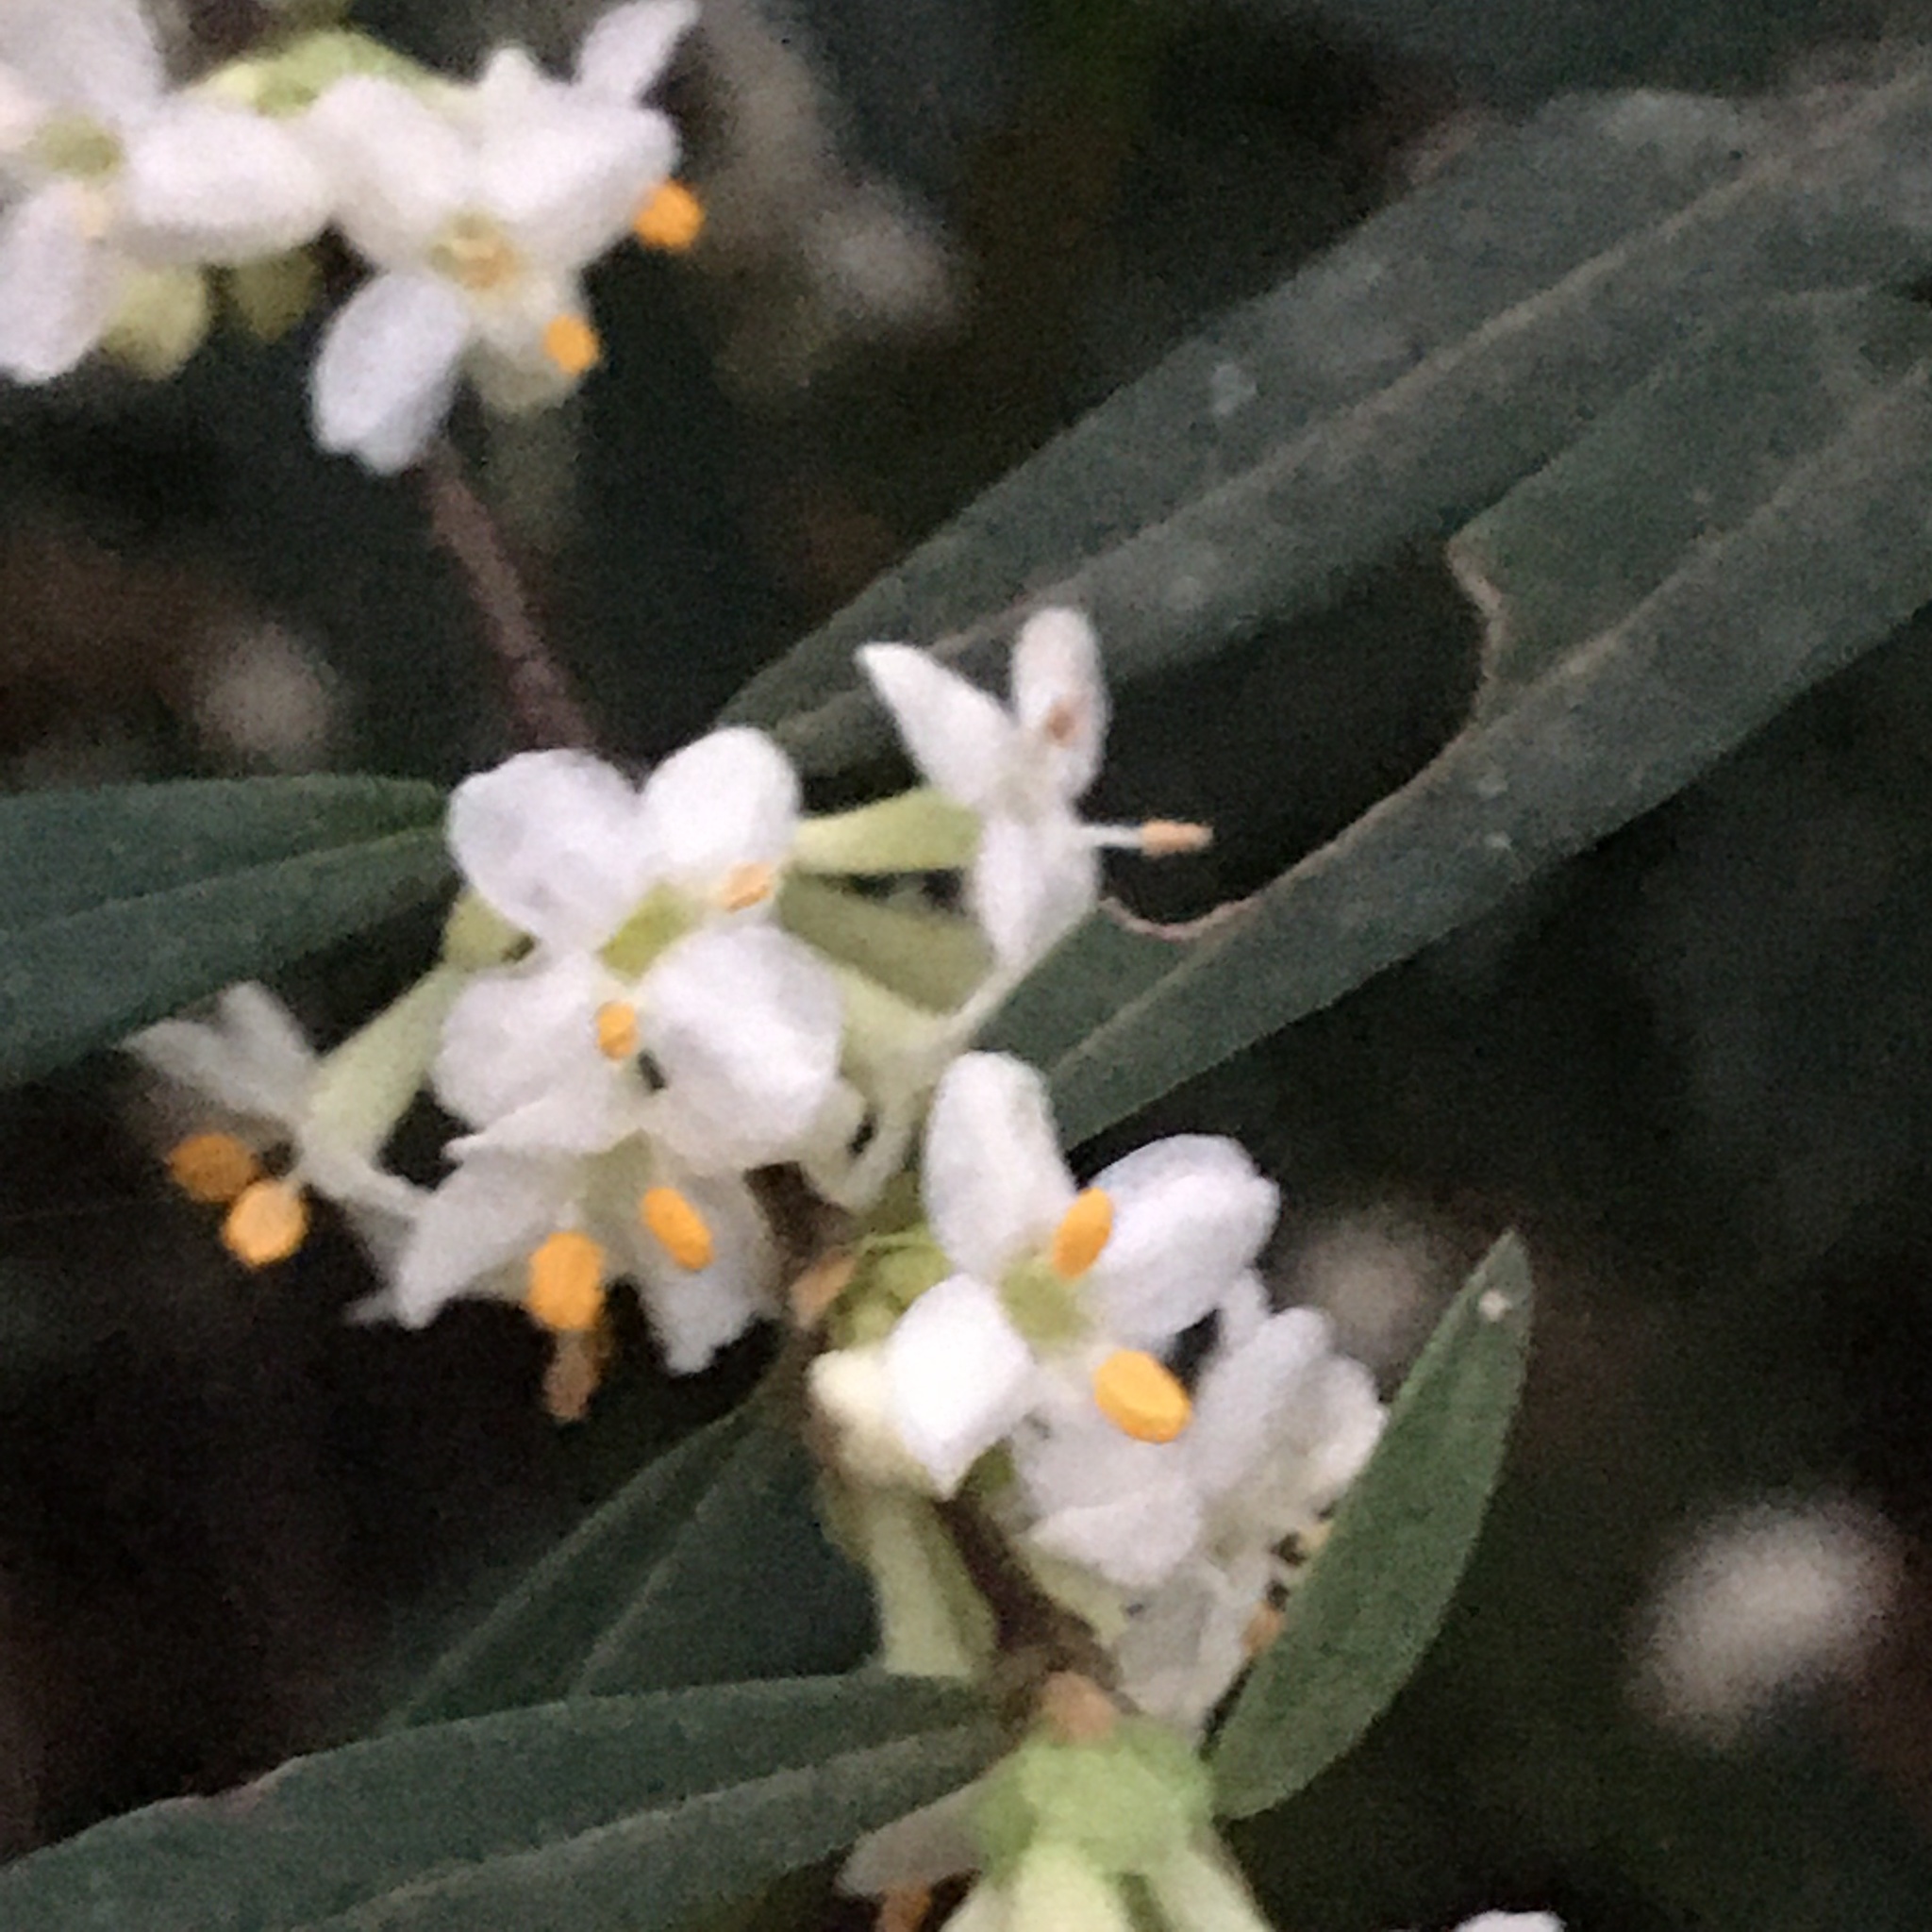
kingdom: Plantae
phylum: Tracheophyta
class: Magnoliopsida
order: Malvales
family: Thymelaeaceae
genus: Pimelea
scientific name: Pimelea axiflora
